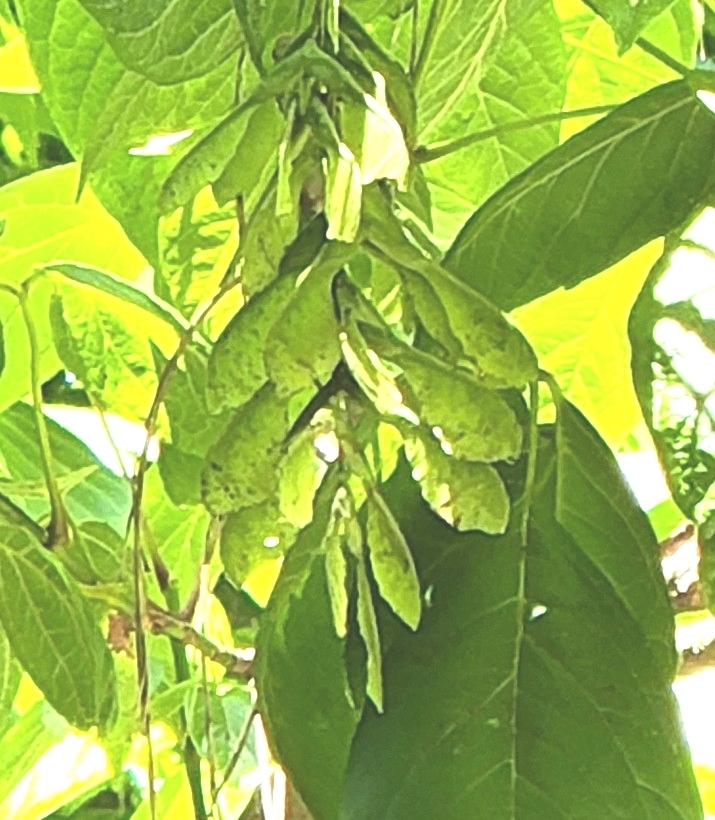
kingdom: Plantae
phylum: Tracheophyta
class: Magnoliopsida
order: Sapindales
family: Sapindaceae
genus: Acer
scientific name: Acer negundo
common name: Ashleaf maple
